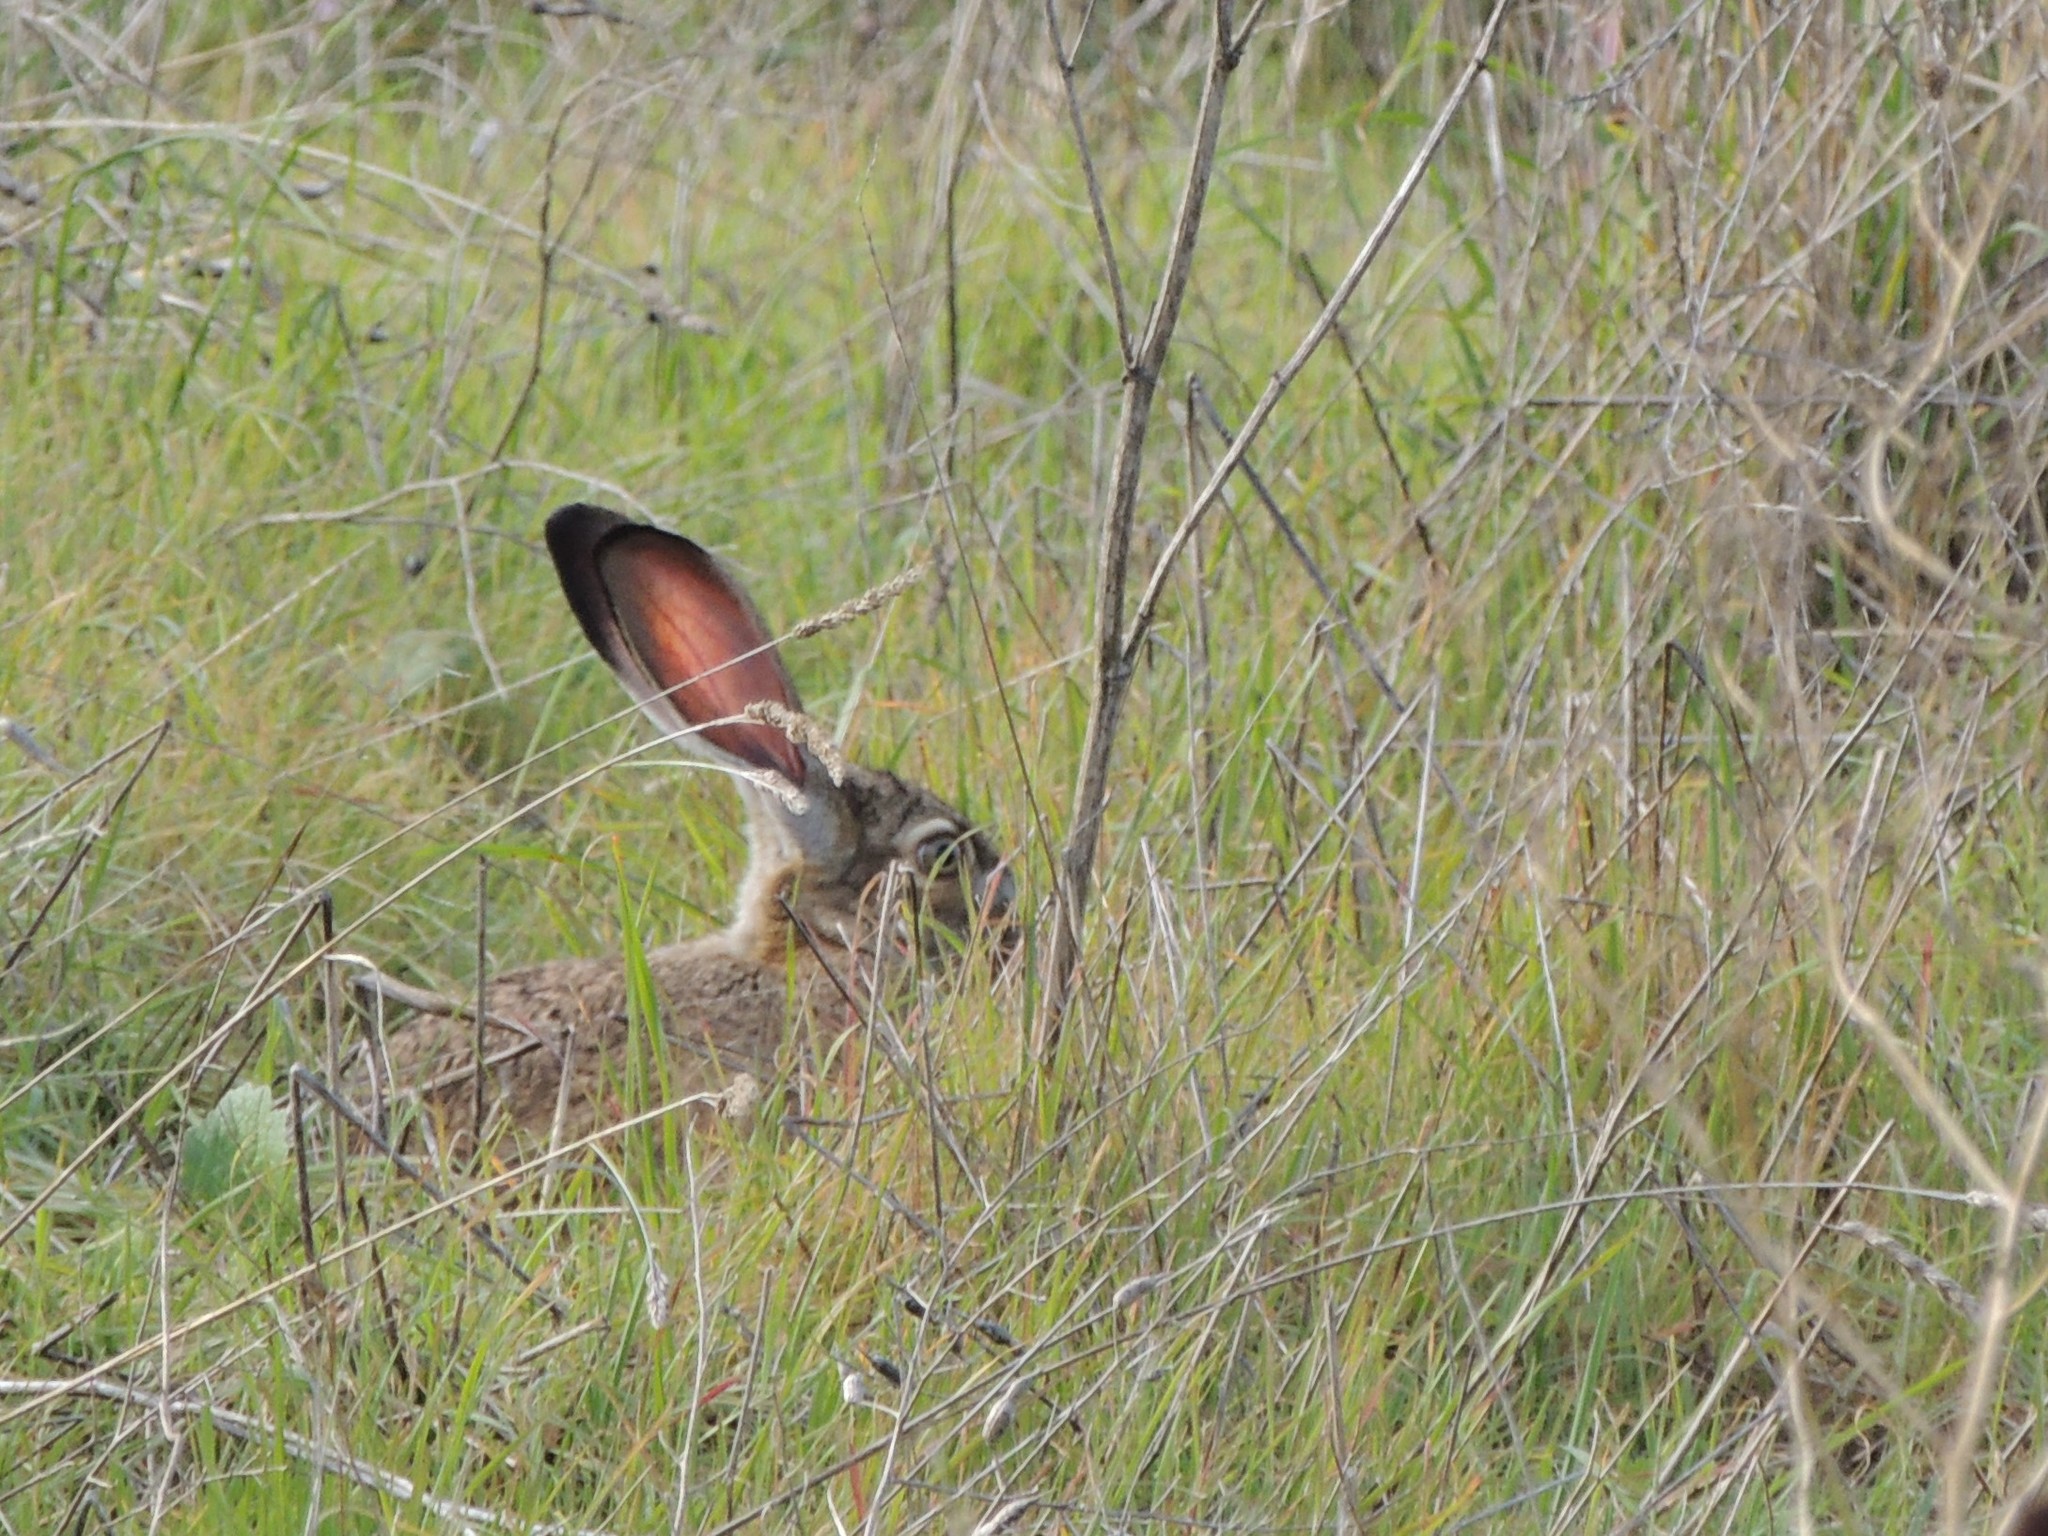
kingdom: Animalia
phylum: Chordata
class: Mammalia
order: Lagomorpha
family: Leporidae
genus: Lepus
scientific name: Lepus californicus
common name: Black-tailed jackrabbit
